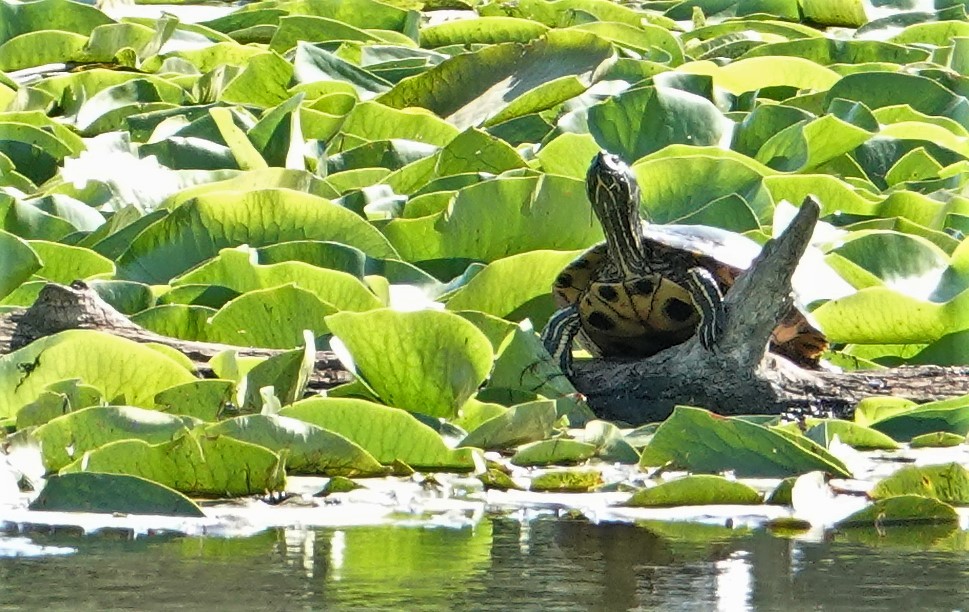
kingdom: Animalia
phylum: Chordata
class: Testudines
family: Emydidae
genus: Trachemys
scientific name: Trachemys scripta
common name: Slider
